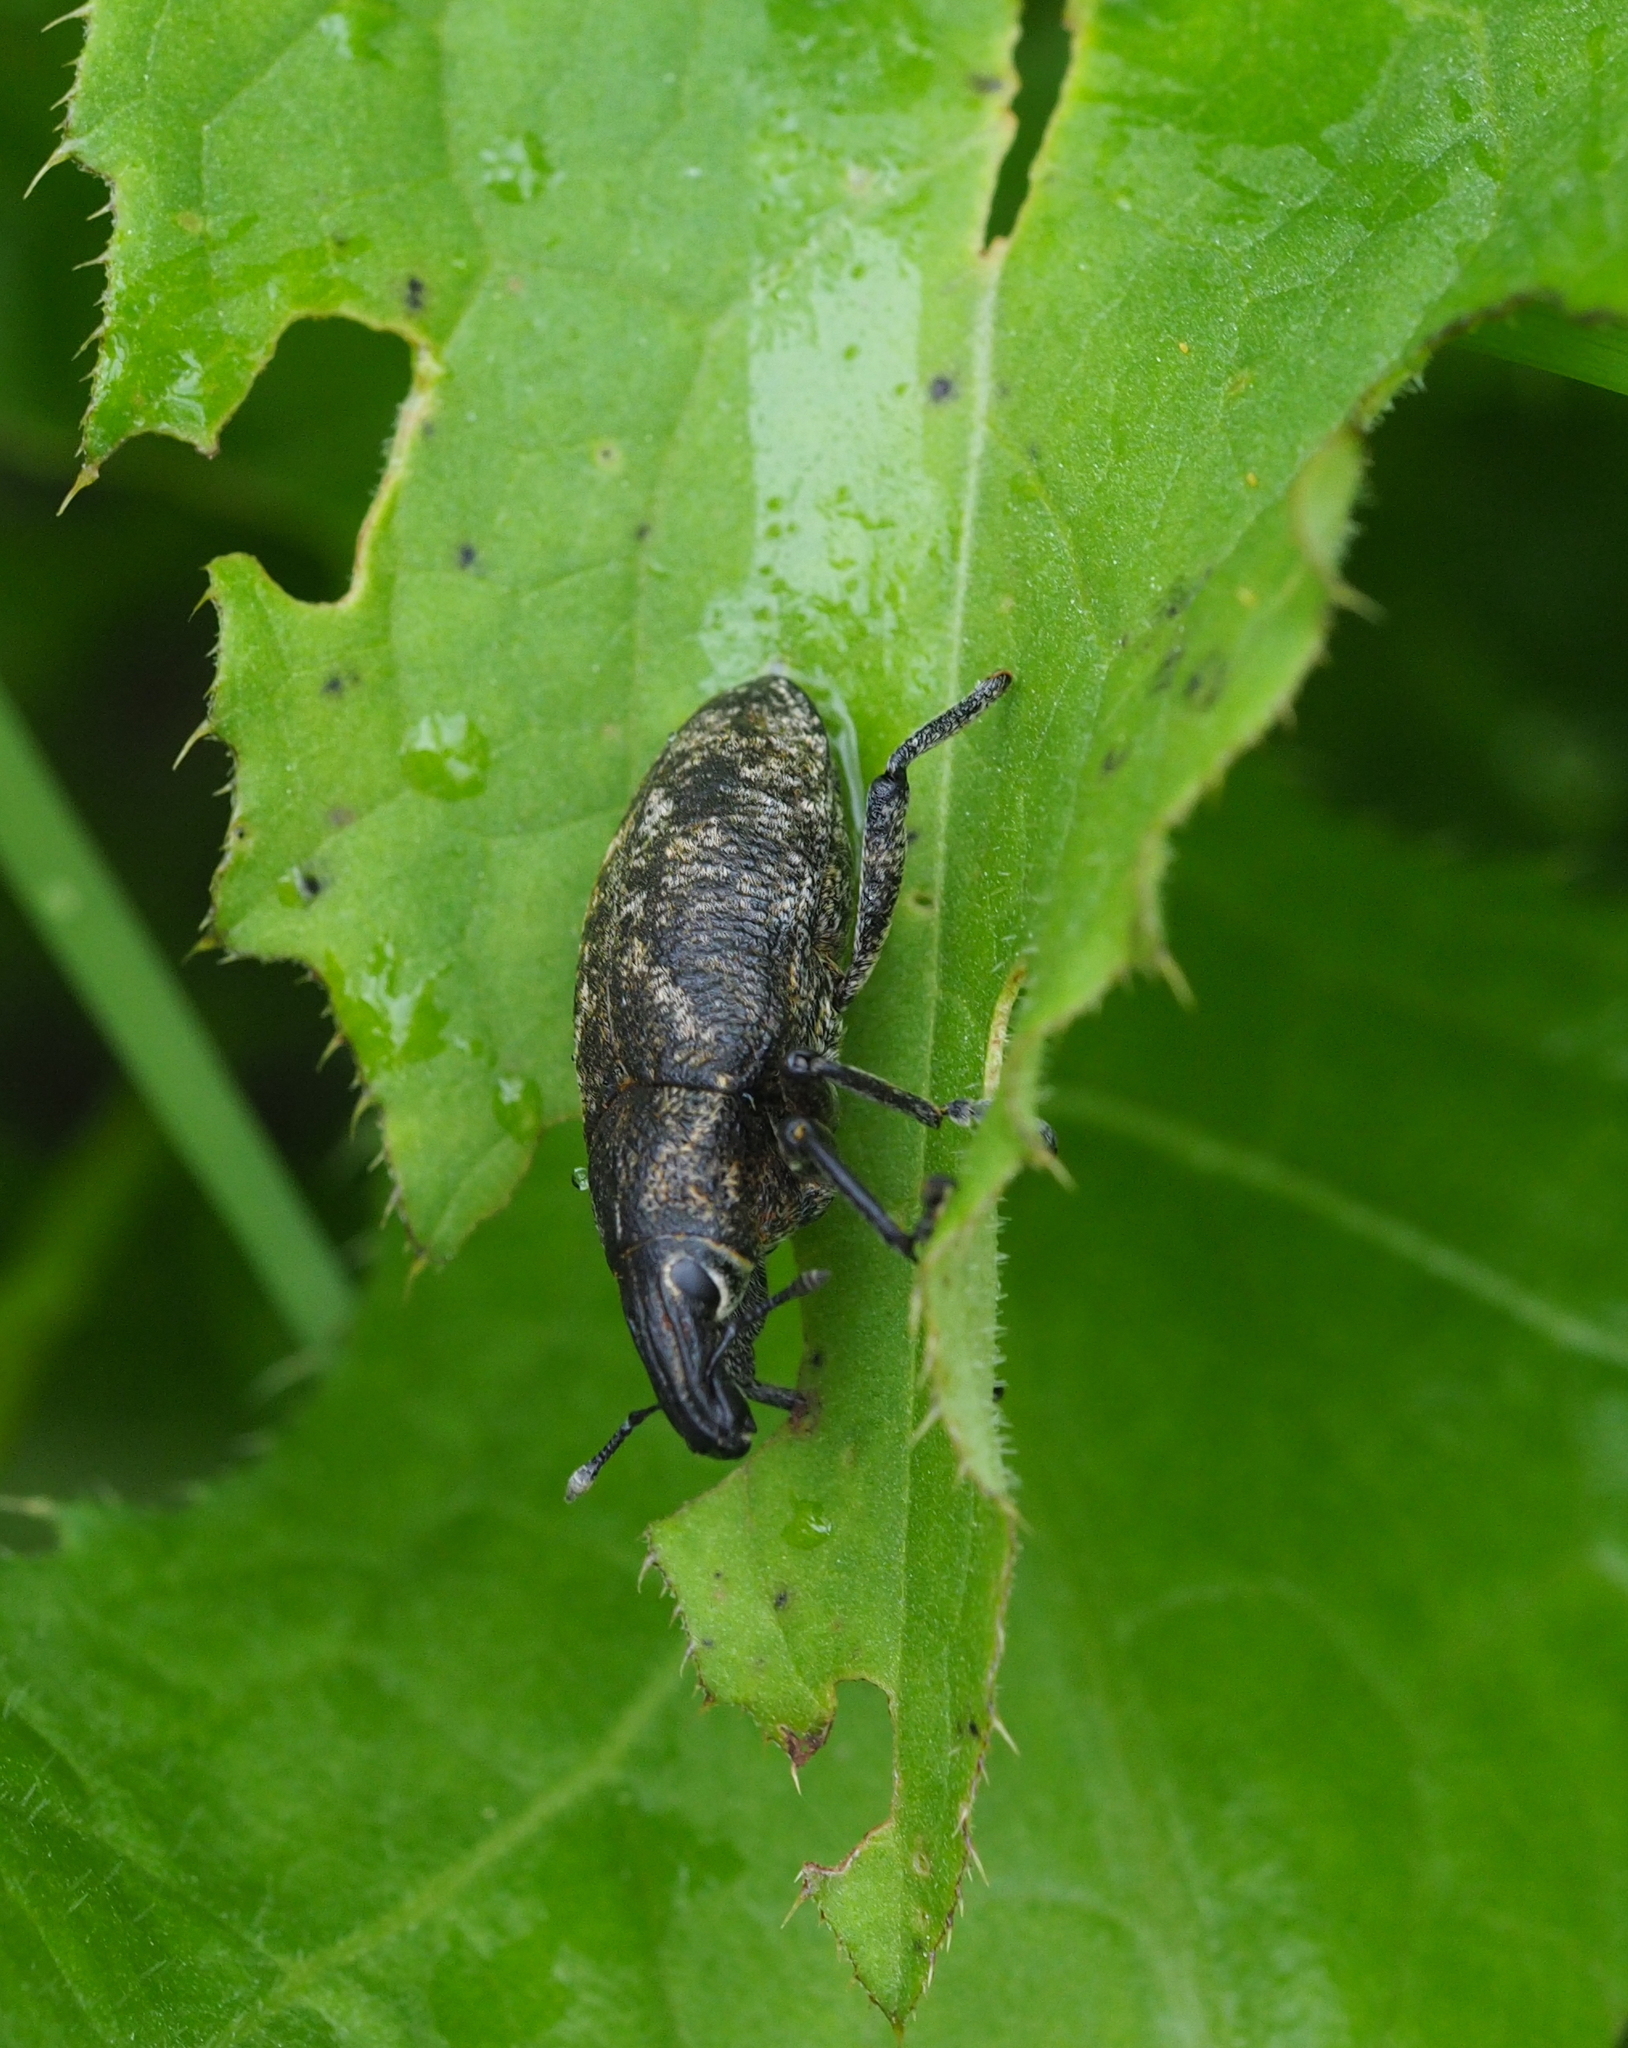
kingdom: Animalia
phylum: Arthropoda
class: Insecta
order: Coleoptera
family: Curculionidae
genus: Cleonis
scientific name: Cleonis pigra
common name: Large thistle weevil
